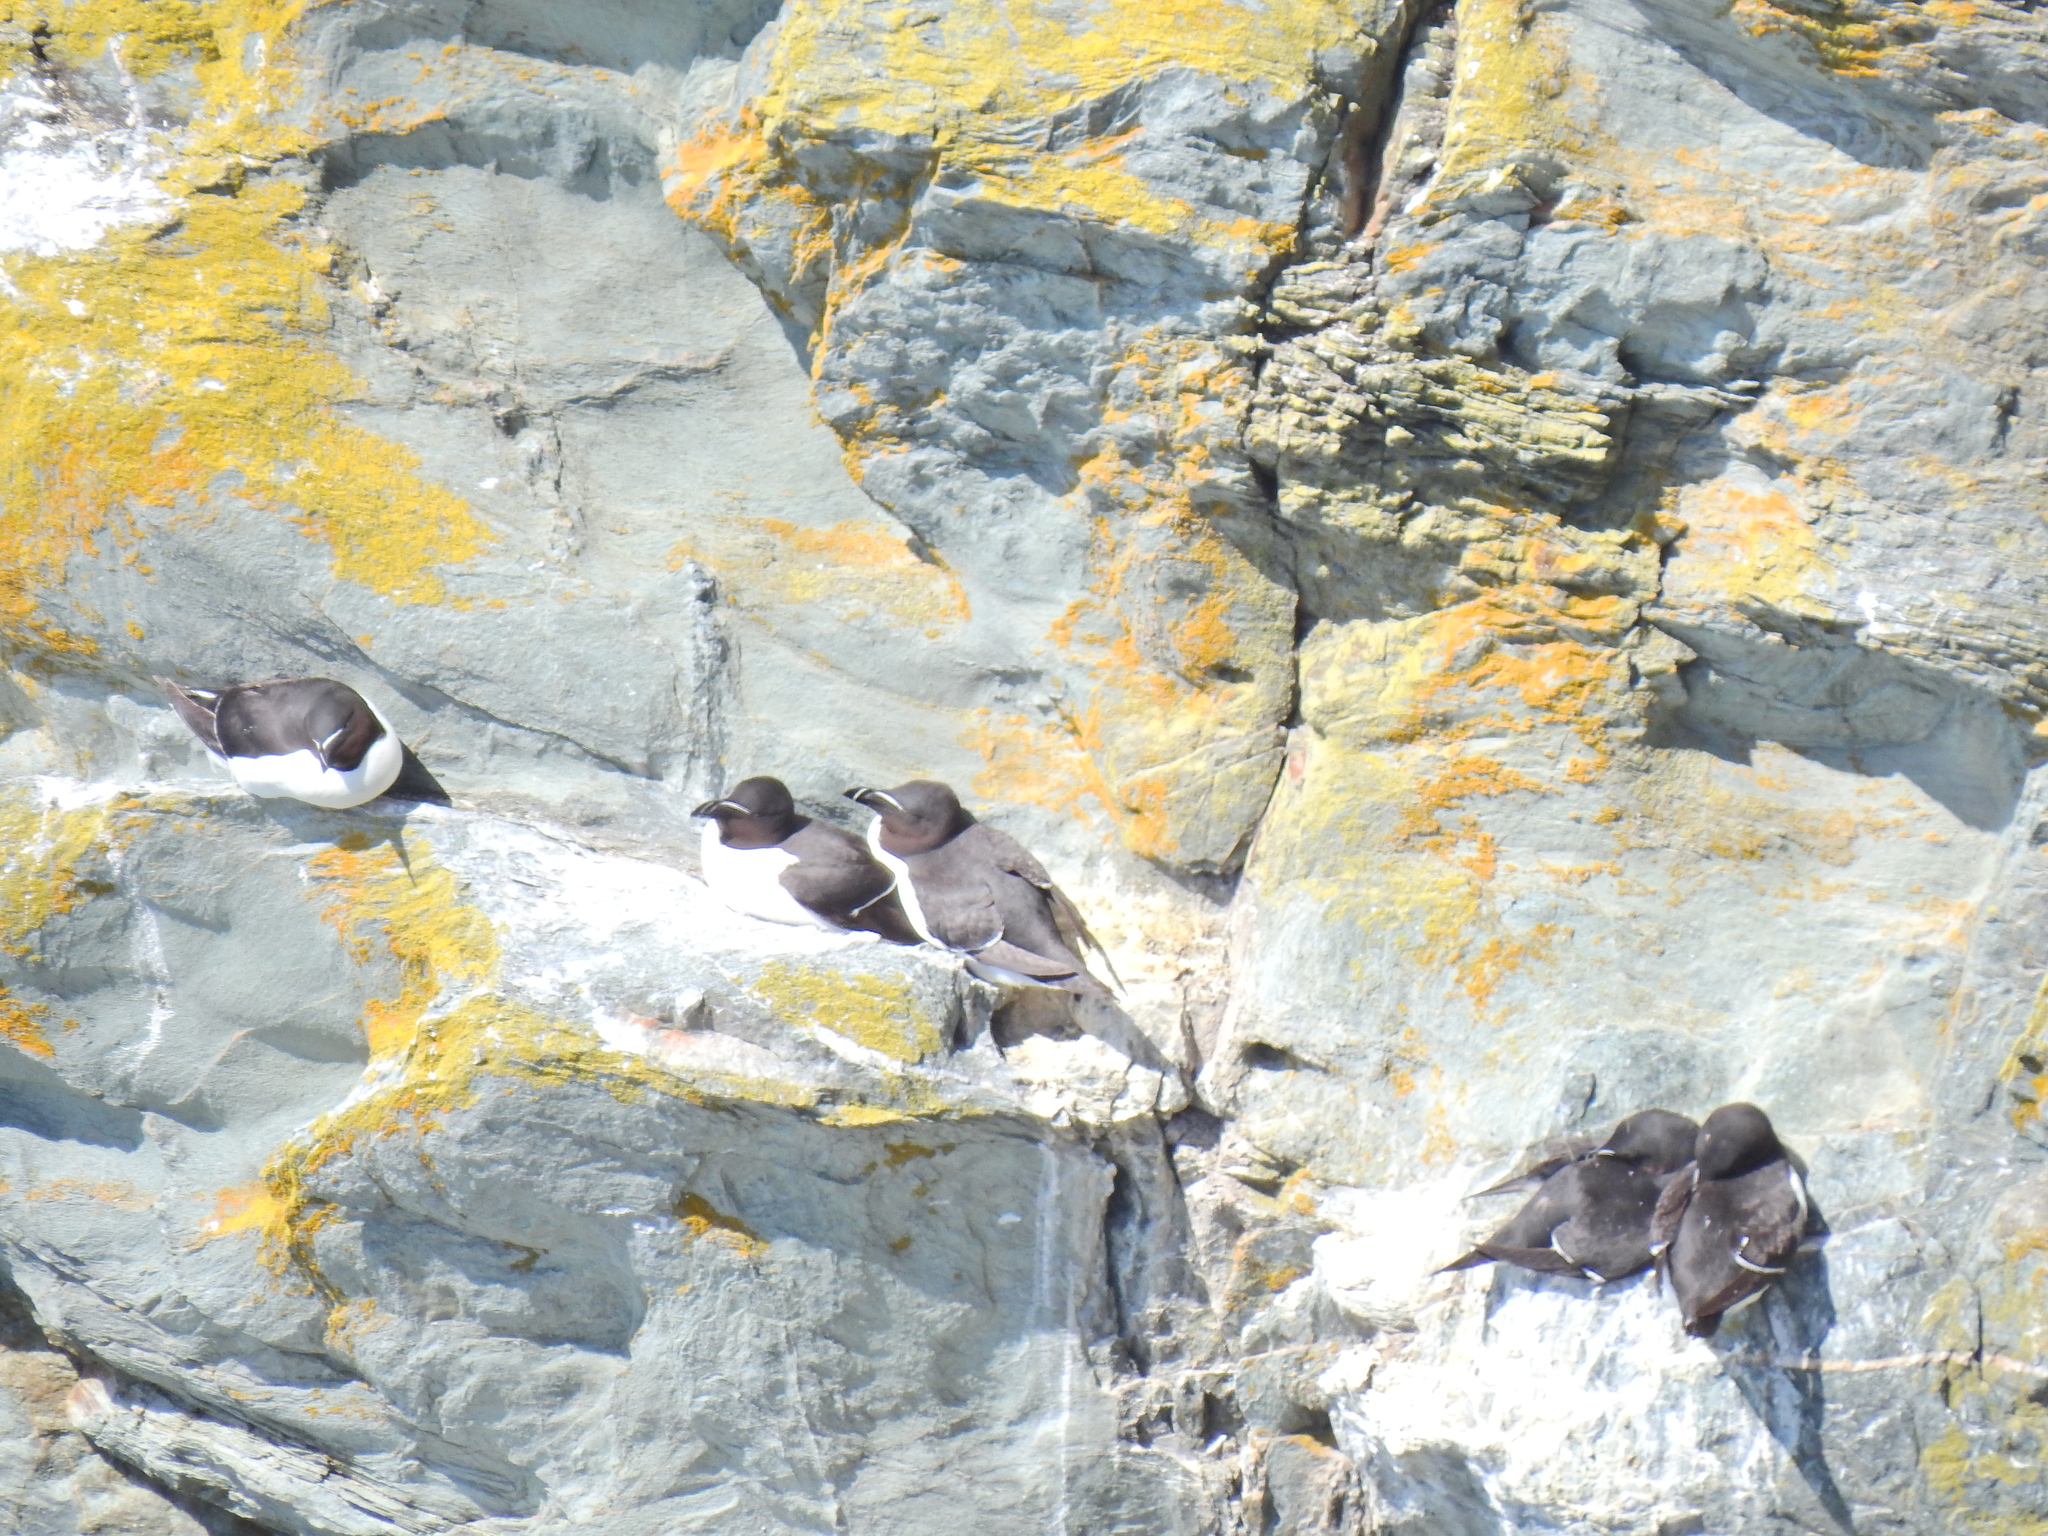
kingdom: Animalia
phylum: Chordata
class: Aves
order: Charadriiformes
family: Alcidae
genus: Alca
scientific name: Alca torda
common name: Razorbill
